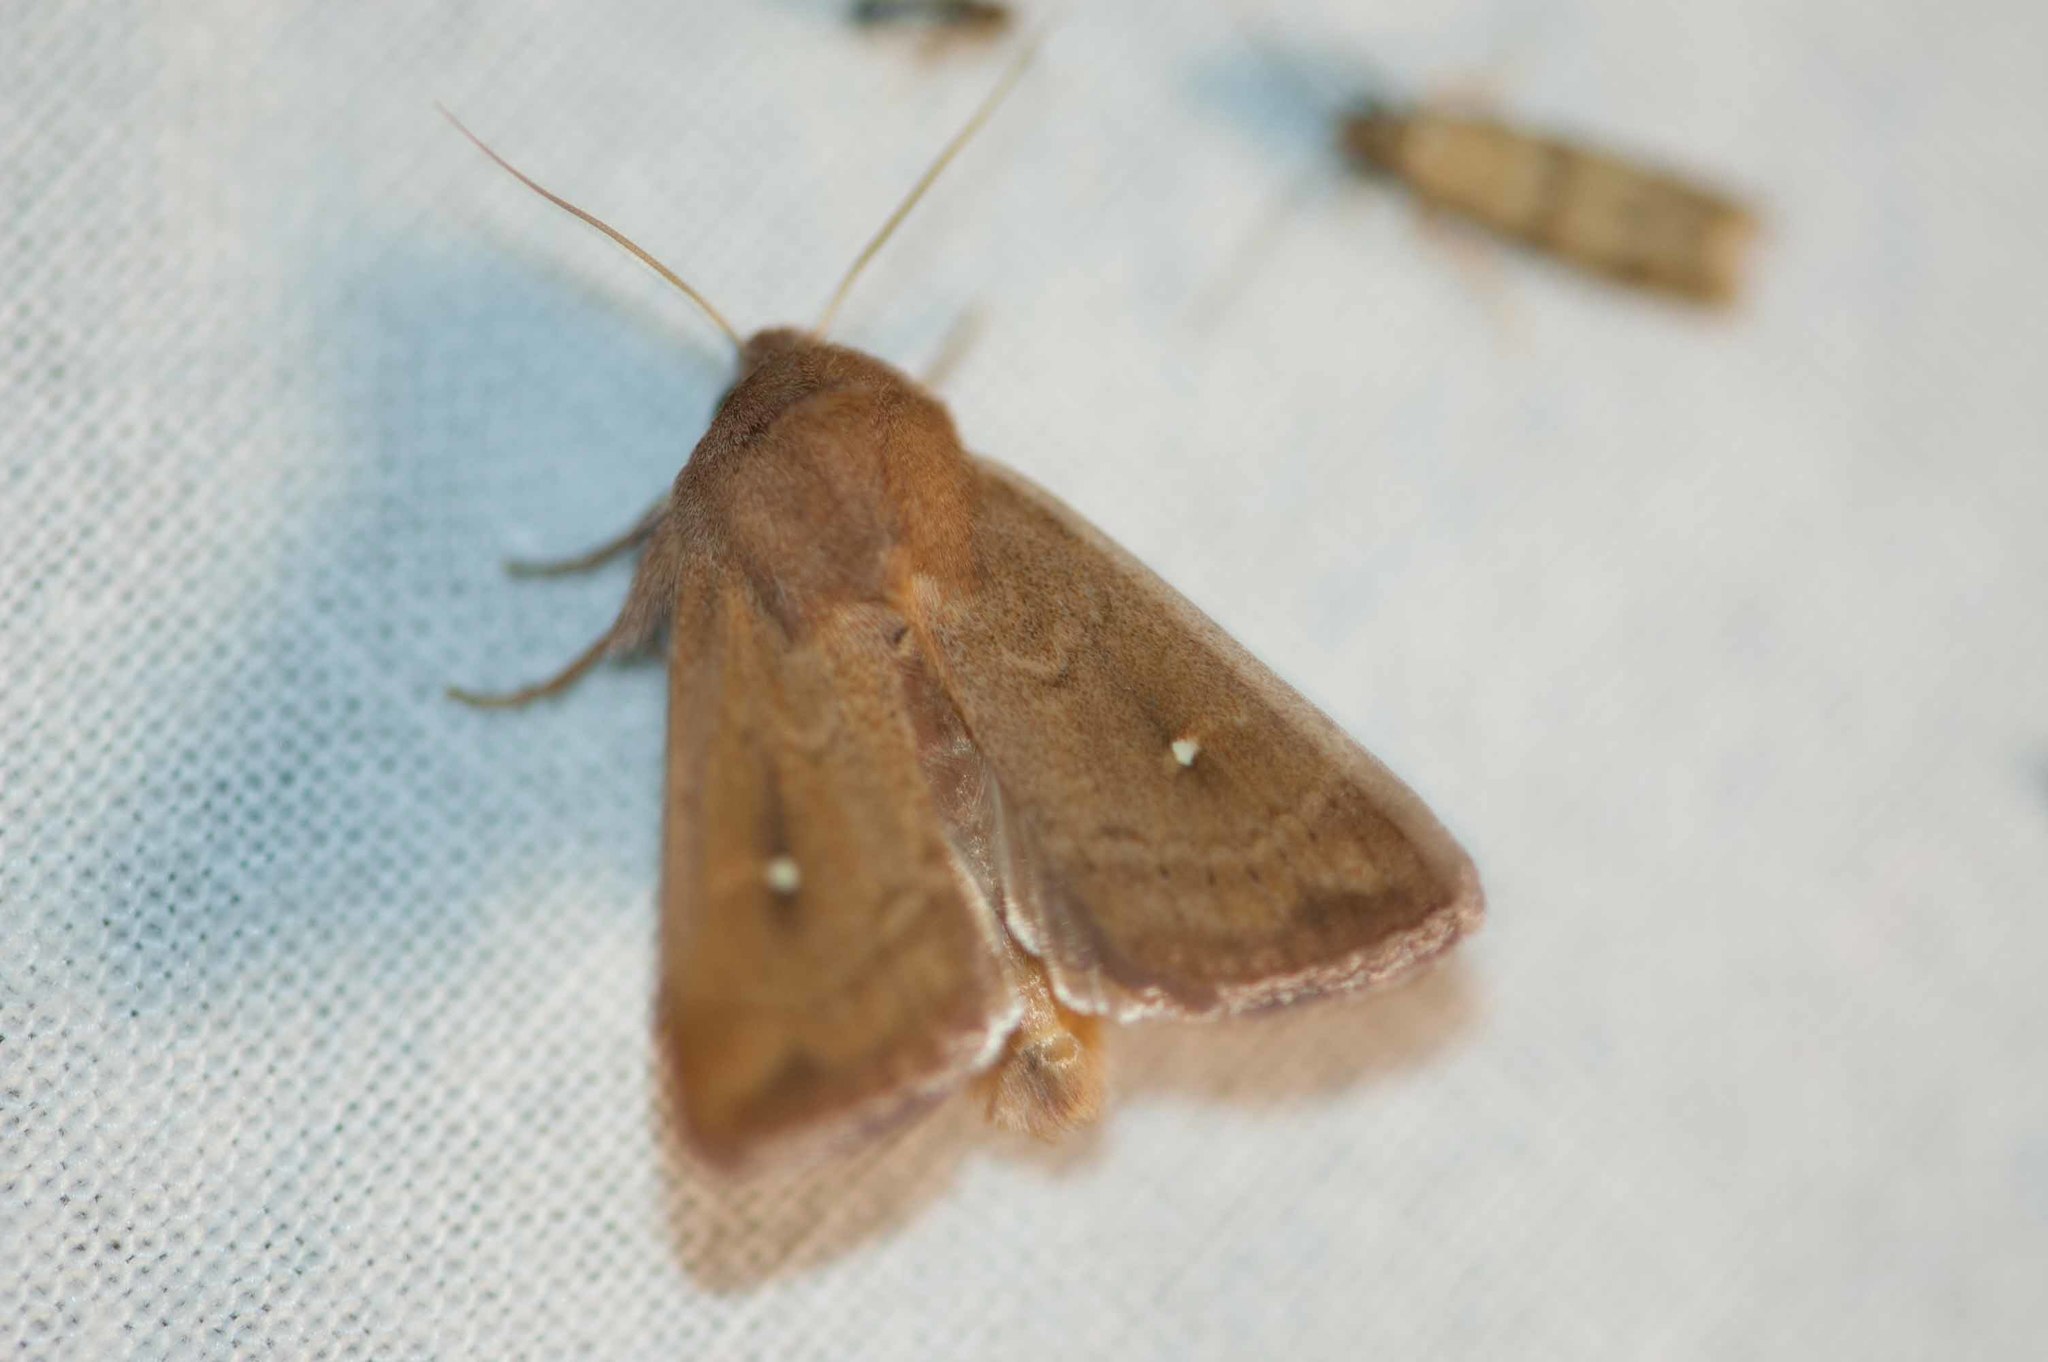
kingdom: Animalia
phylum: Arthropoda
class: Insecta
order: Lepidoptera
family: Noctuidae
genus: Mythimna
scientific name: Mythimna albipuncta
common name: White-point
